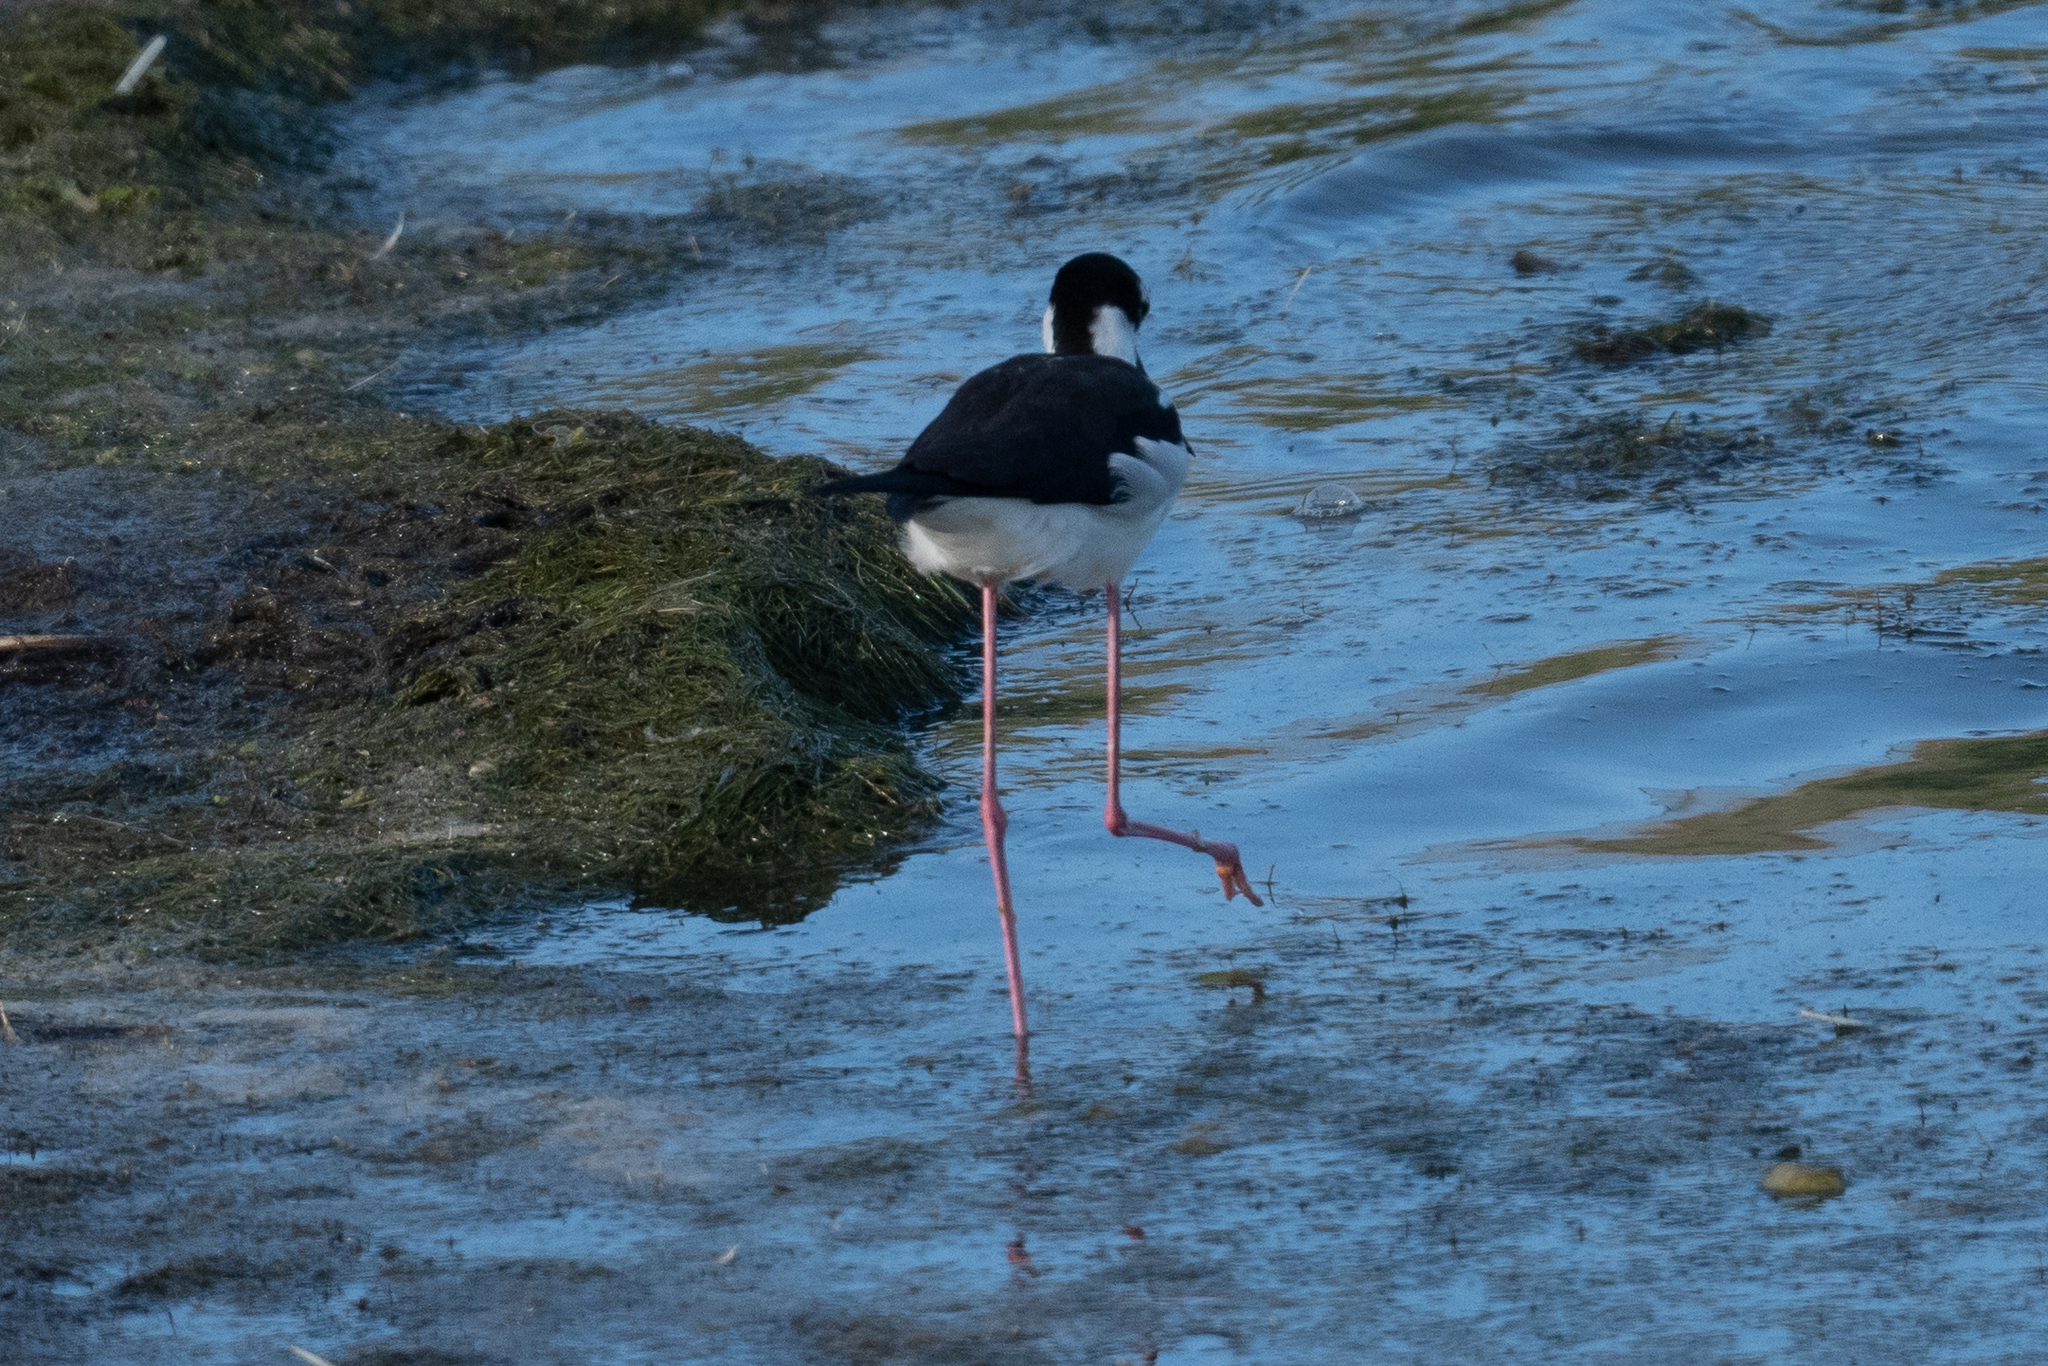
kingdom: Animalia
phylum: Chordata
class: Aves
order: Charadriiformes
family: Recurvirostridae
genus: Himantopus
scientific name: Himantopus mexicanus
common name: Black-necked stilt
